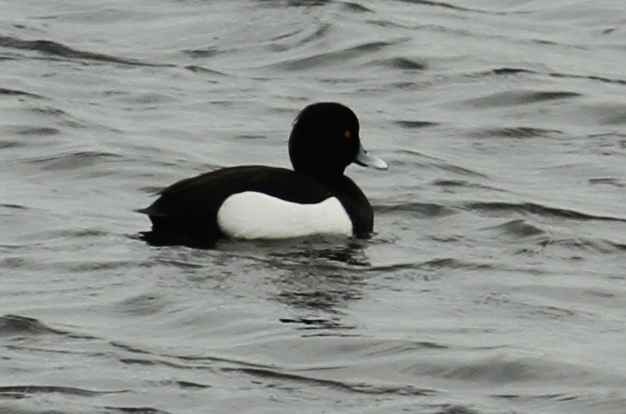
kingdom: Animalia
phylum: Chordata
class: Aves
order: Anseriformes
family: Anatidae
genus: Aythya
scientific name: Aythya fuligula
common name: Tufted duck
